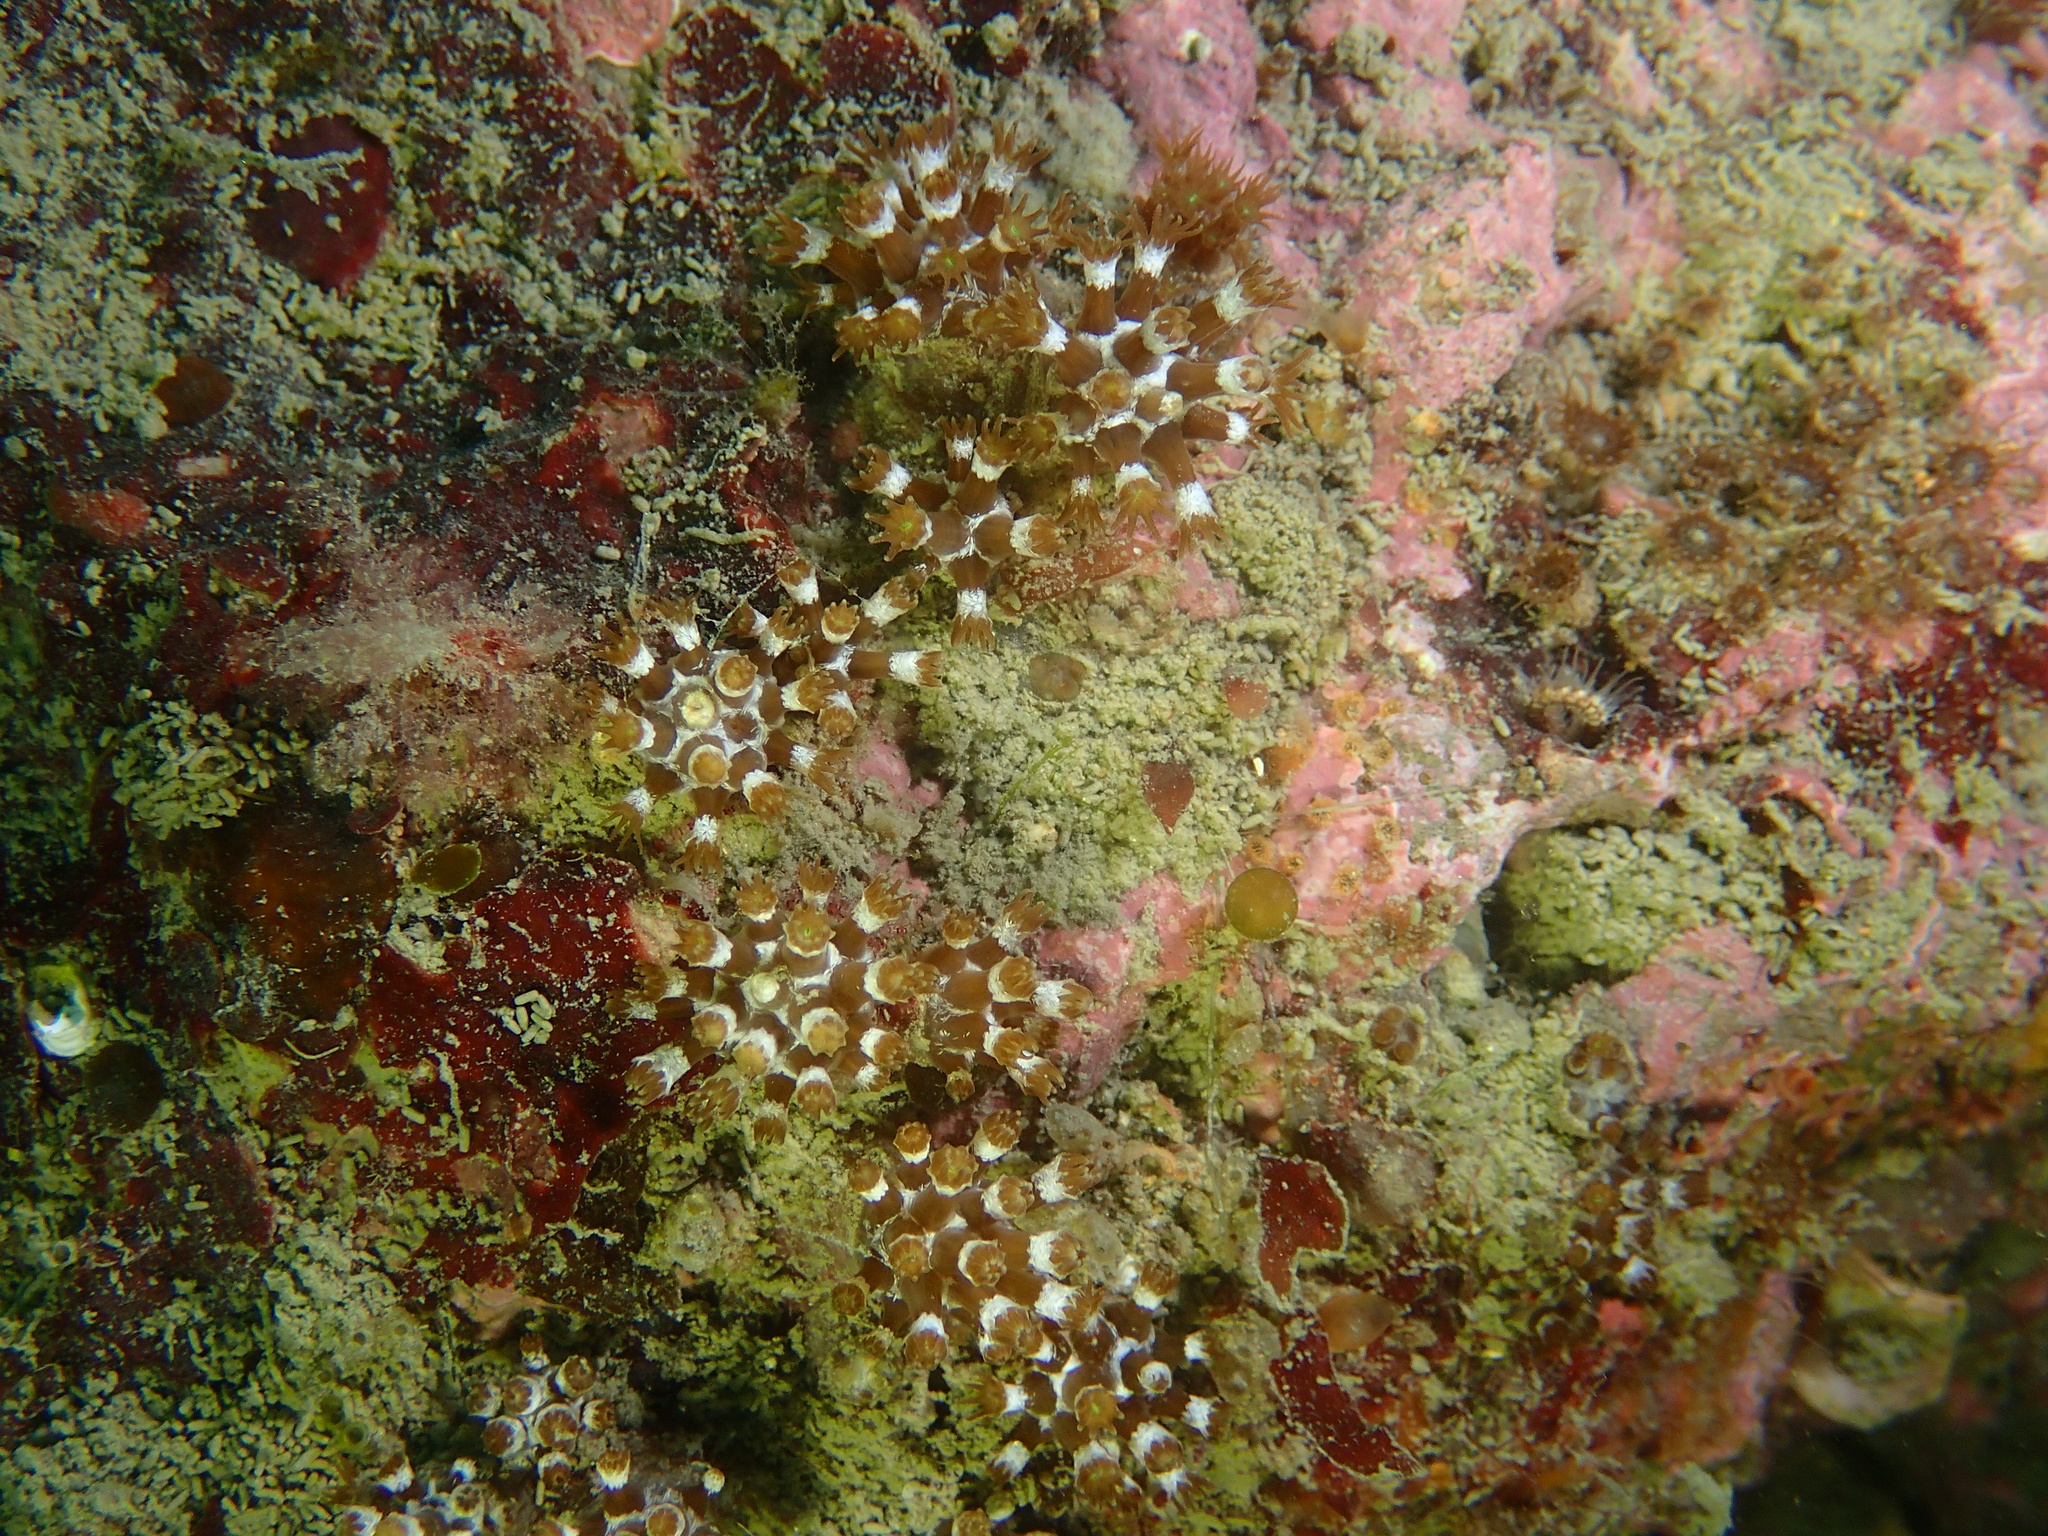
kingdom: Animalia
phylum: Cnidaria
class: Anthozoa
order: Malacalcyonacea
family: Paralcyoniidae
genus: Maasella
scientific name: Maasella edwardsii
